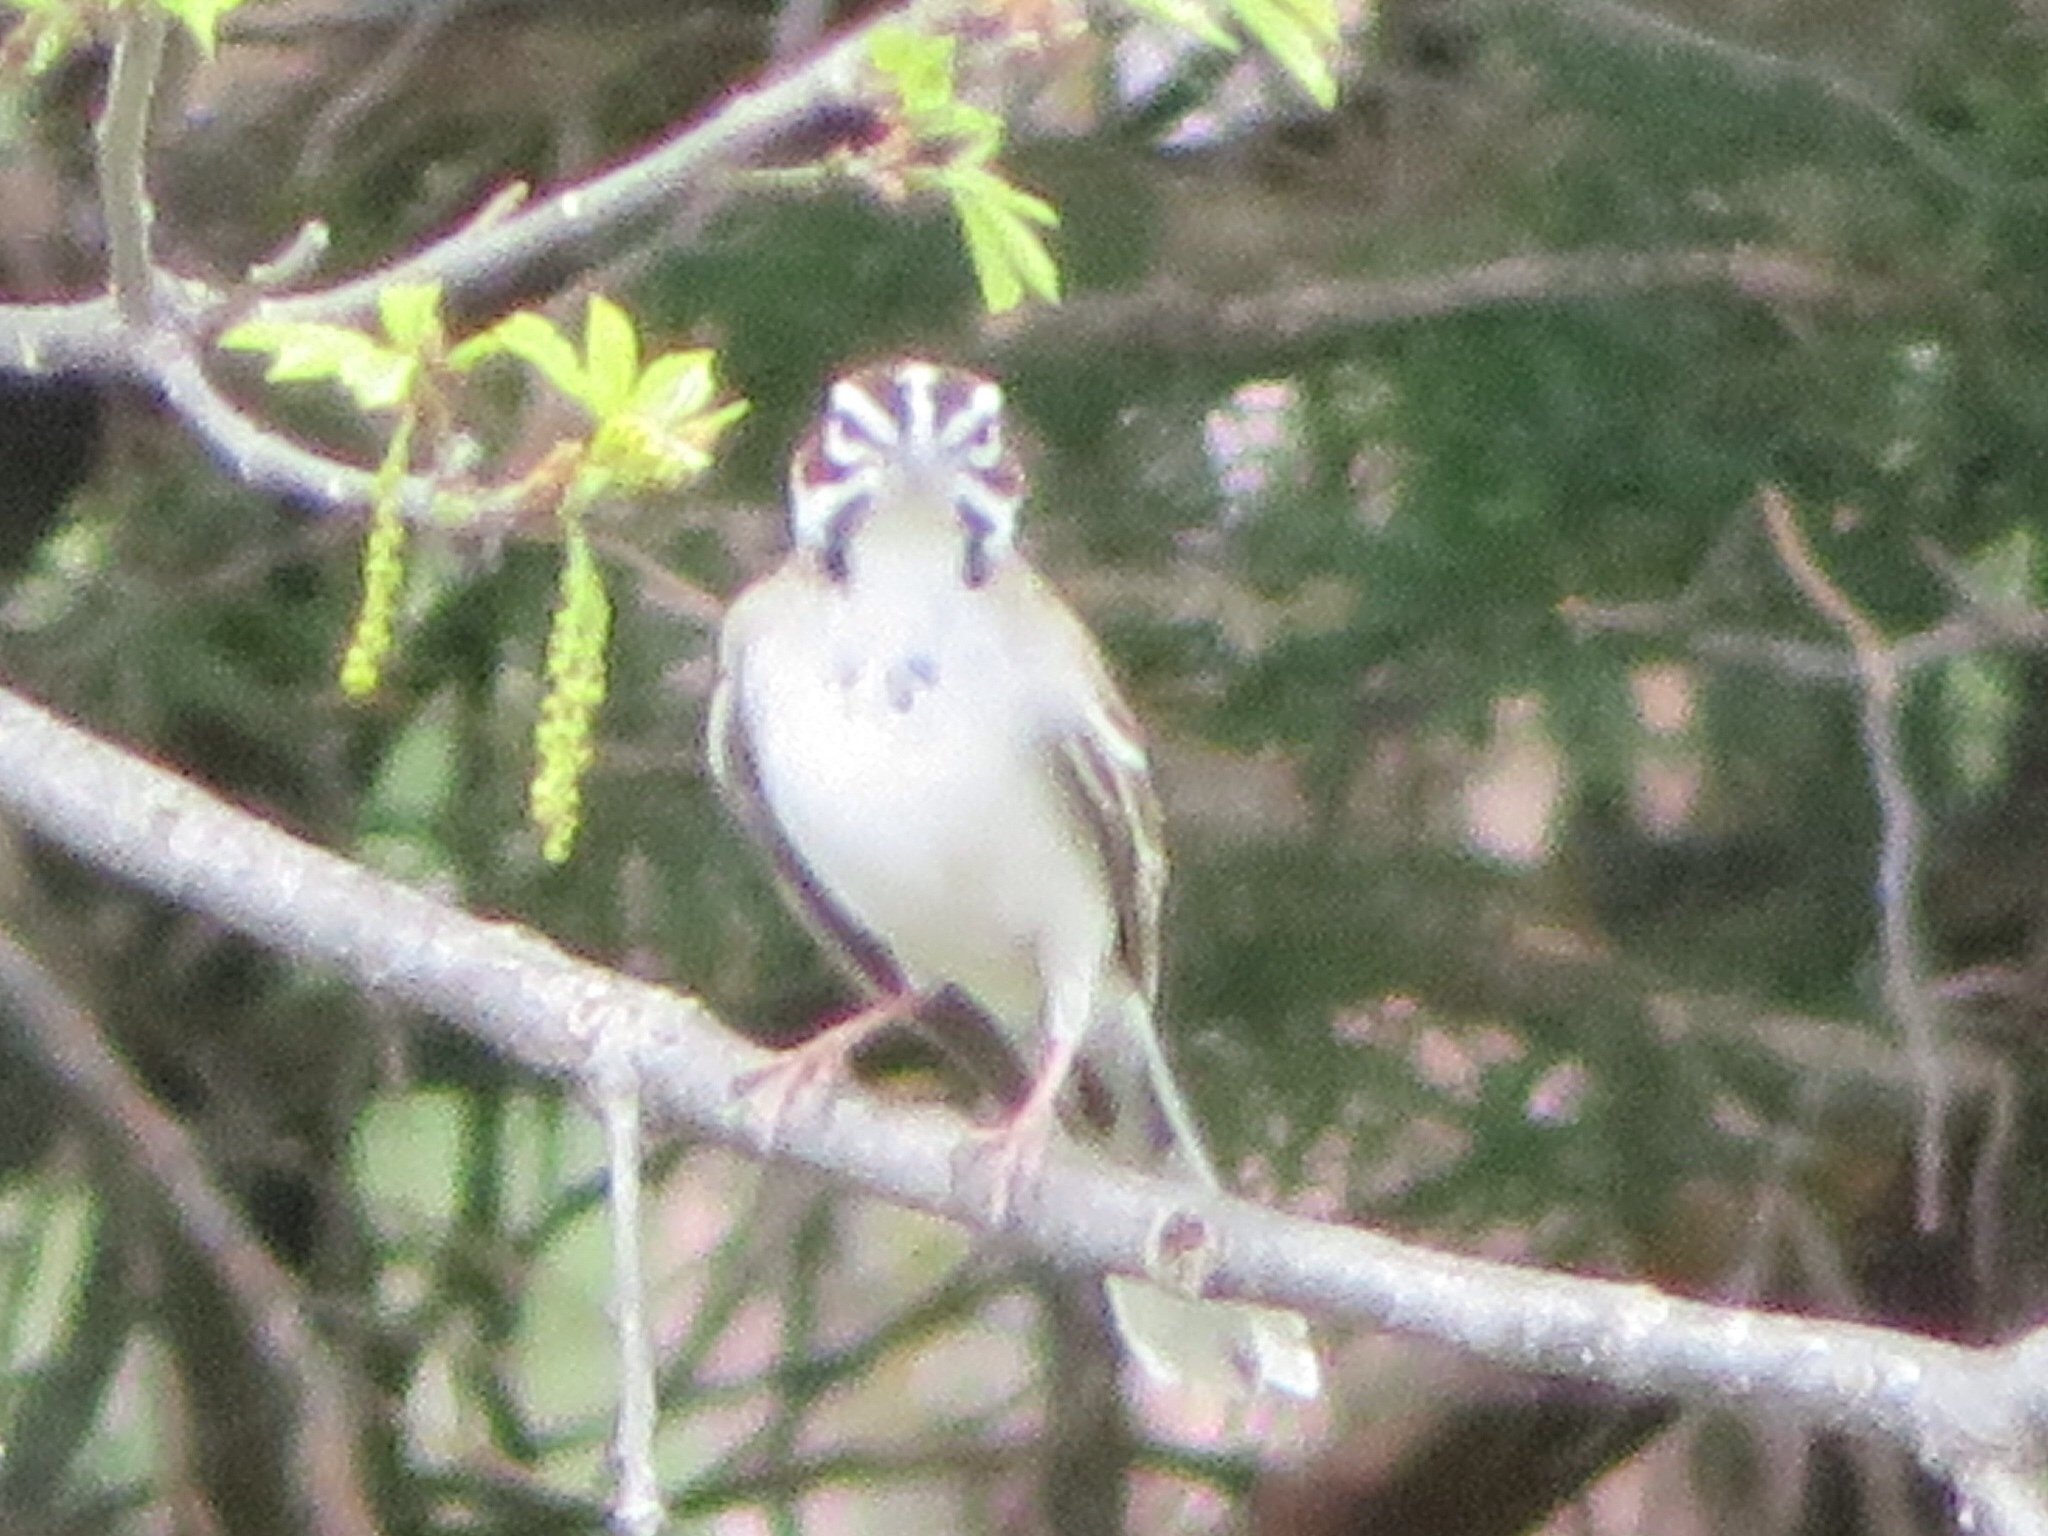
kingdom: Animalia
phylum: Chordata
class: Aves
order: Passeriformes
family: Passerellidae
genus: Chondestes
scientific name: Chondestes grammacus
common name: Lark sparrow
